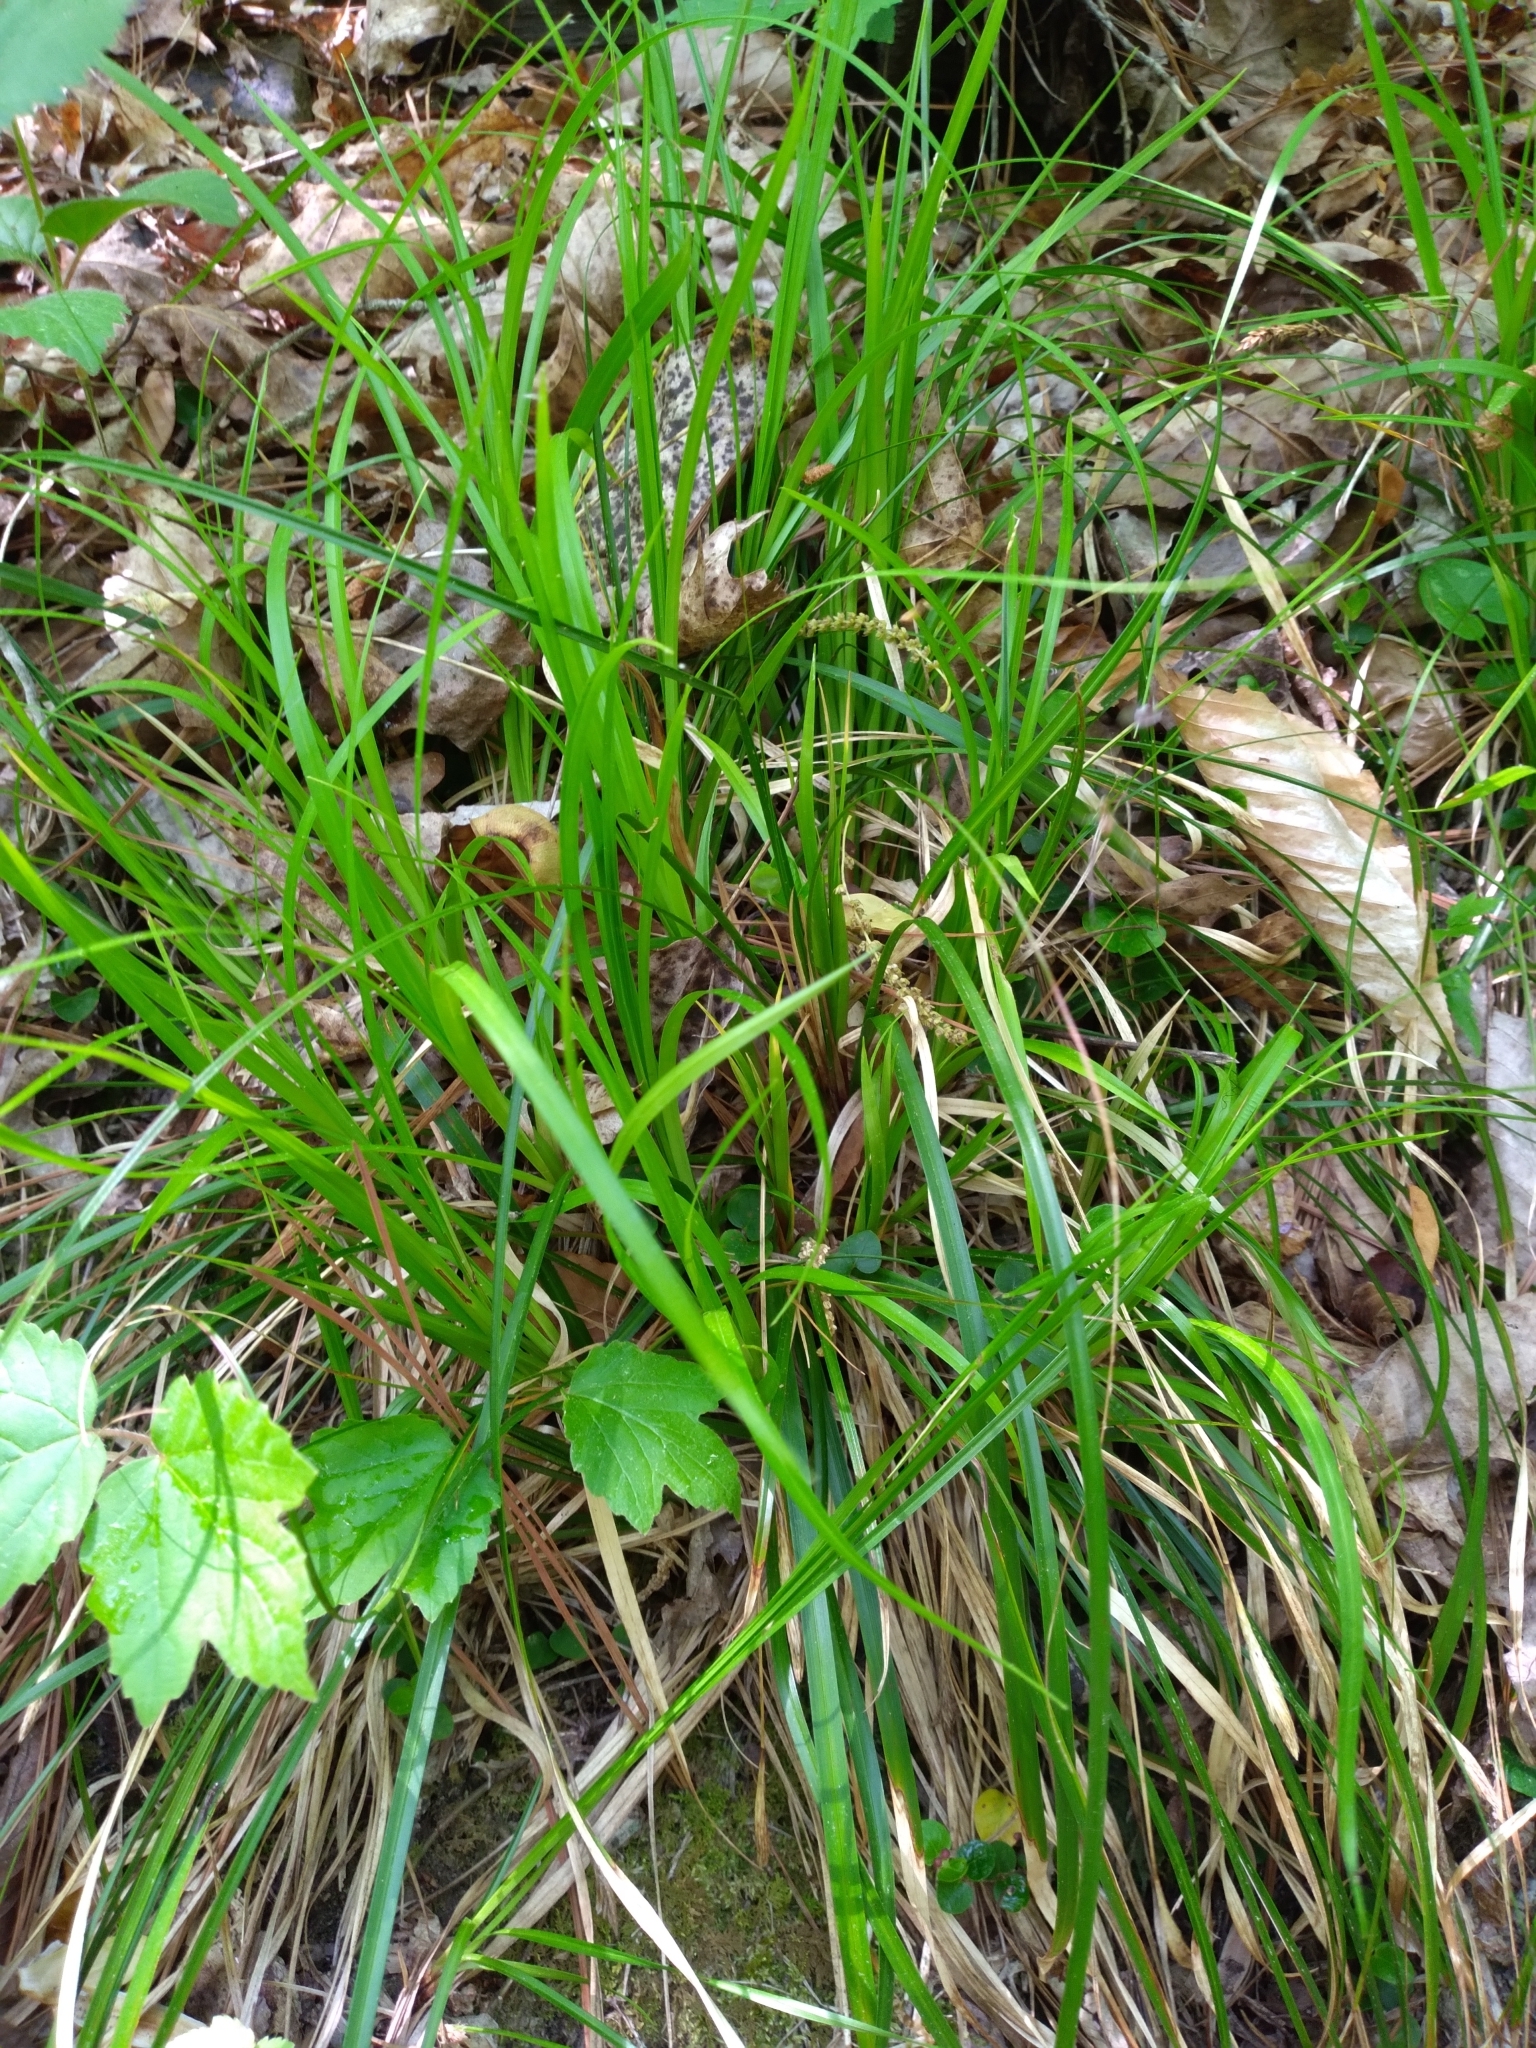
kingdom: Plantae
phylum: Tracheophyta
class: Liliopsida
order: Poales
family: Cyperaceae
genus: Carex
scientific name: Carex picta
